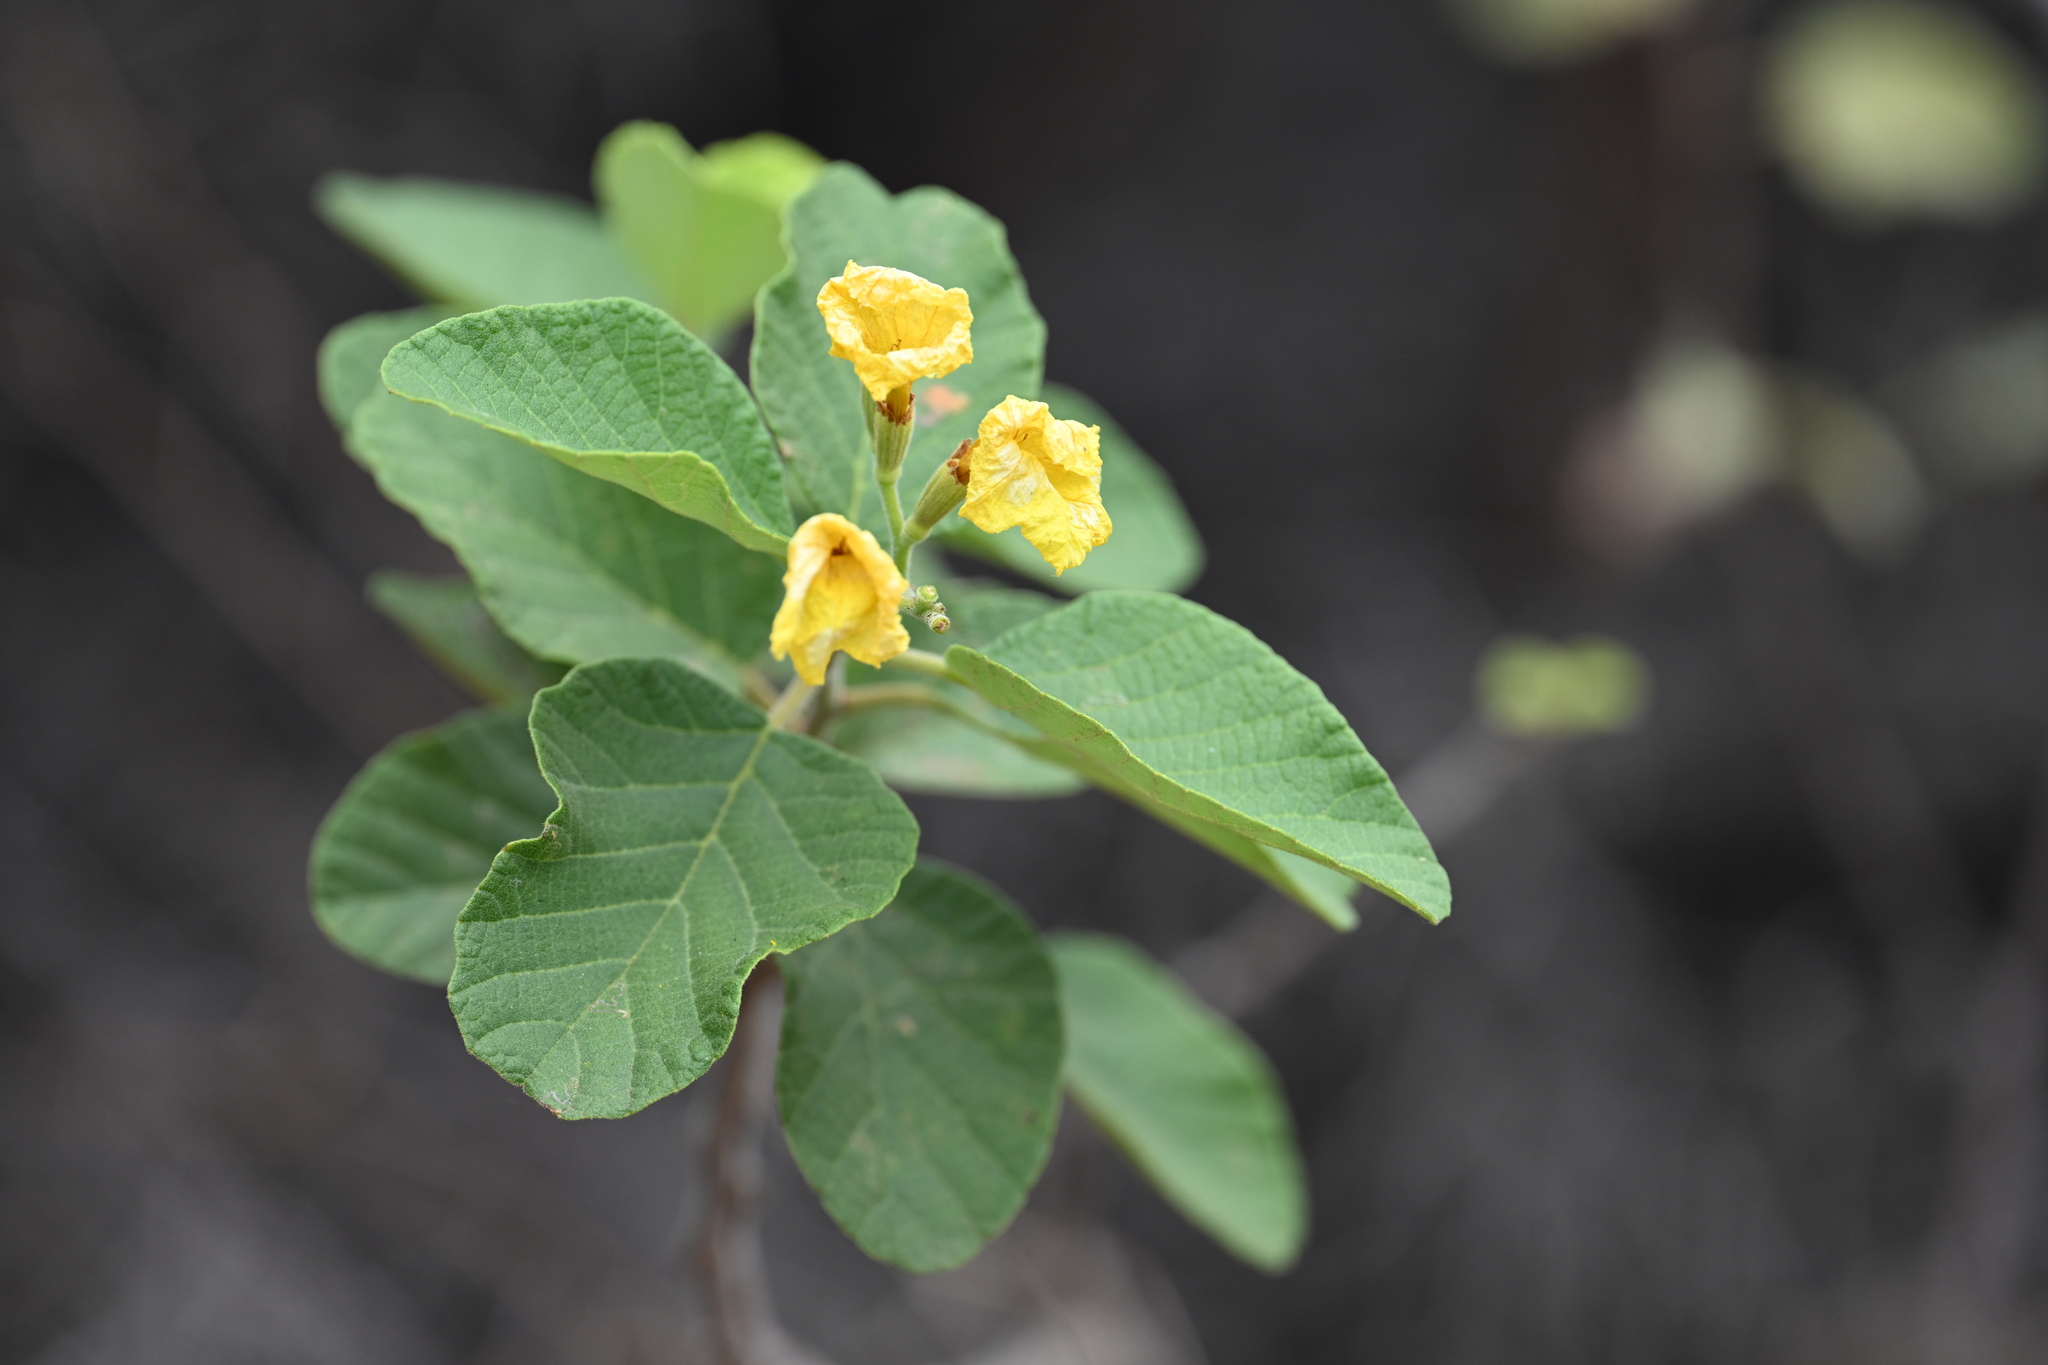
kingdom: Plantae
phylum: Tracheophyta
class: Magnoliopsida
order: Boraginales
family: Cordiaceae
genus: Cordia
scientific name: Cordia lutea
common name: Yellow geiger
